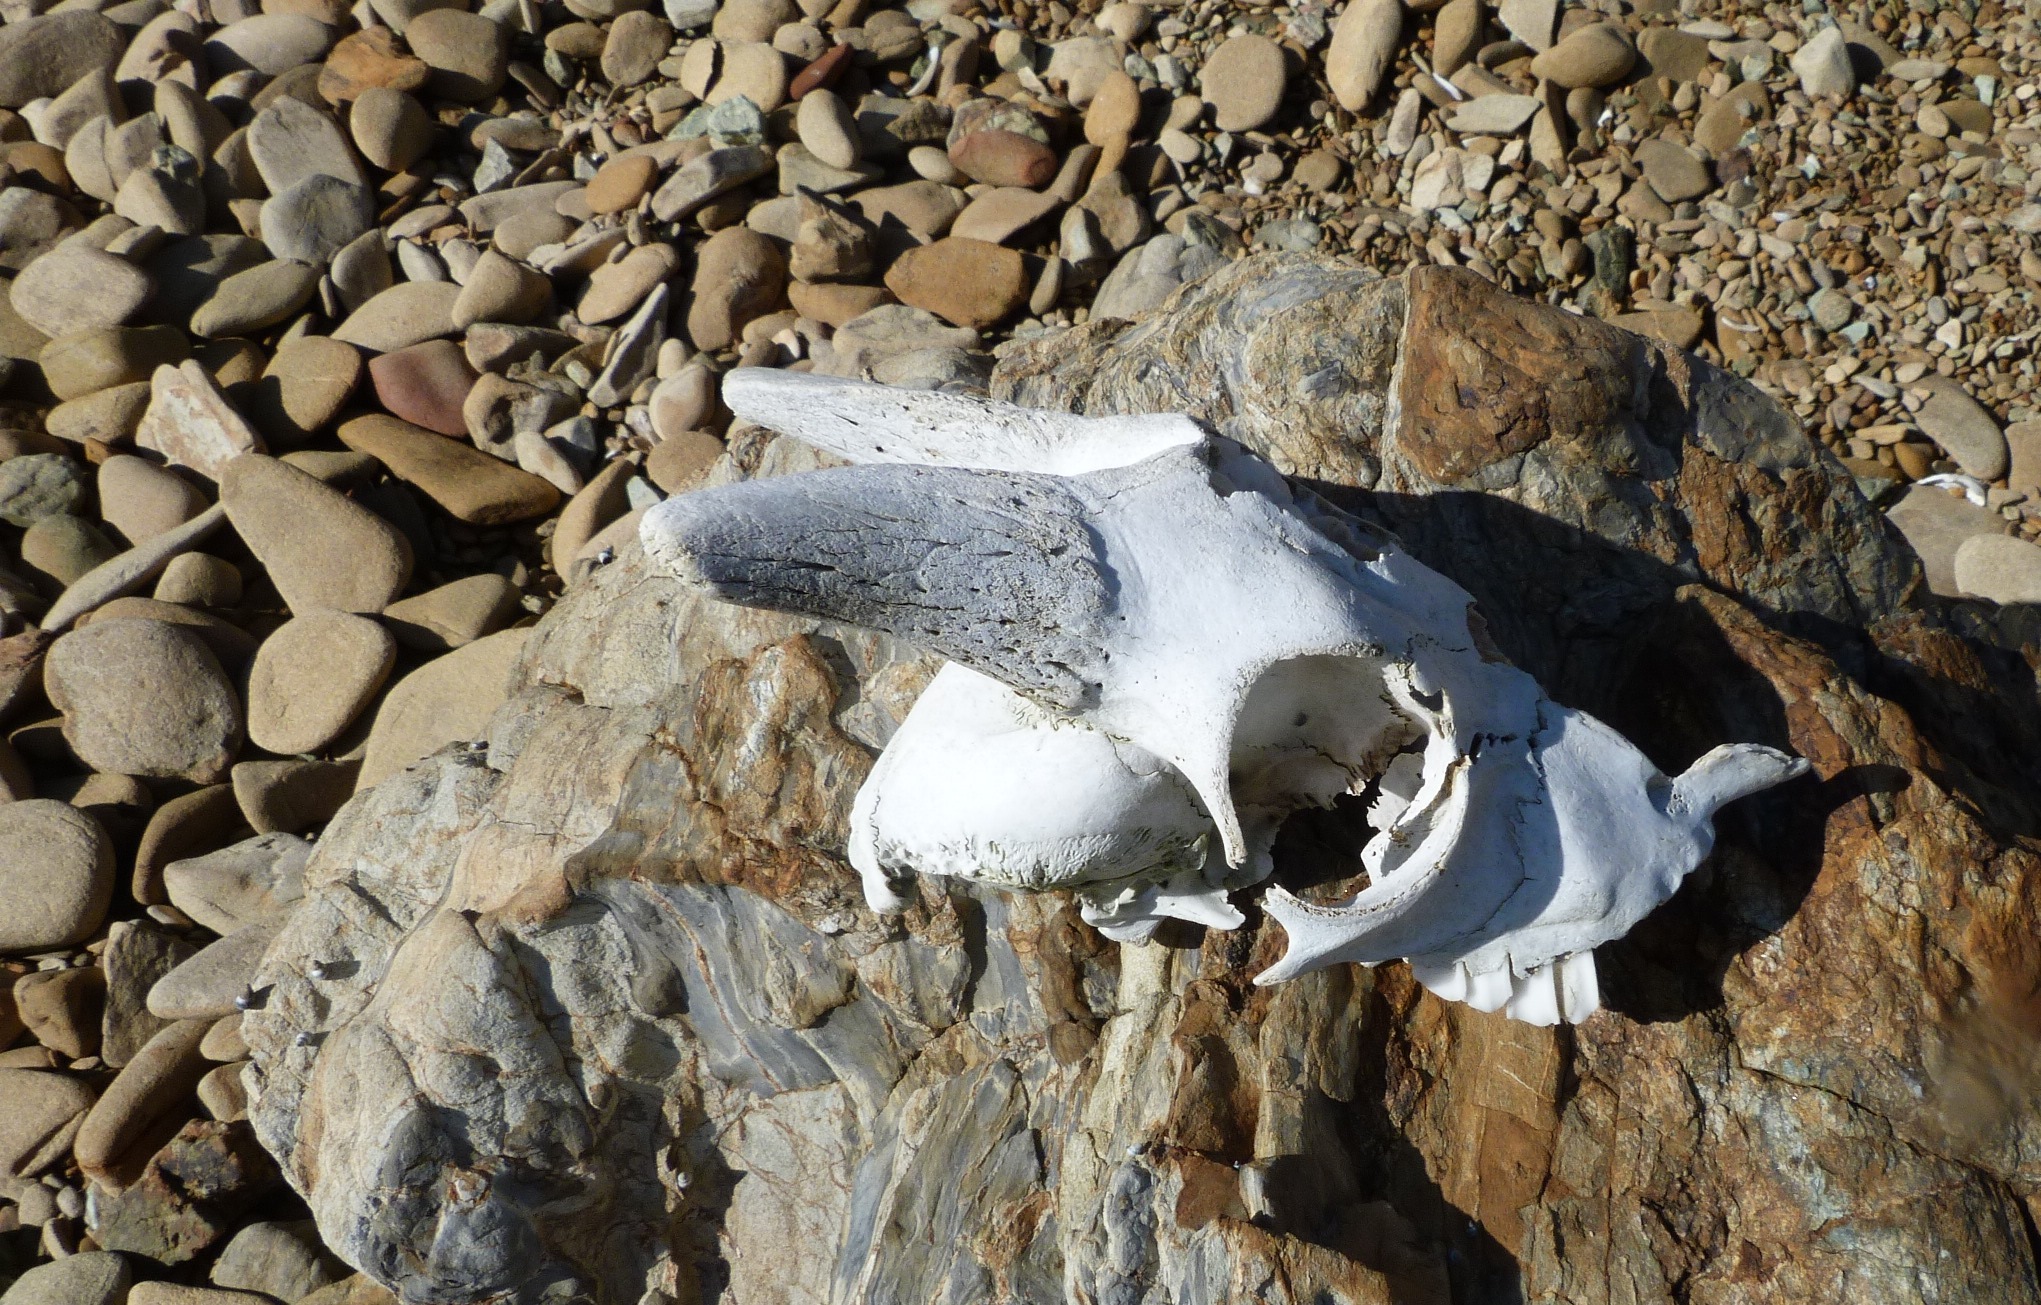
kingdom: Animalia
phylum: Chordata
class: Mammalia
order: Artiodactyla
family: Bovidae
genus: Capra
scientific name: Capra hircus
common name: Domestic goat
